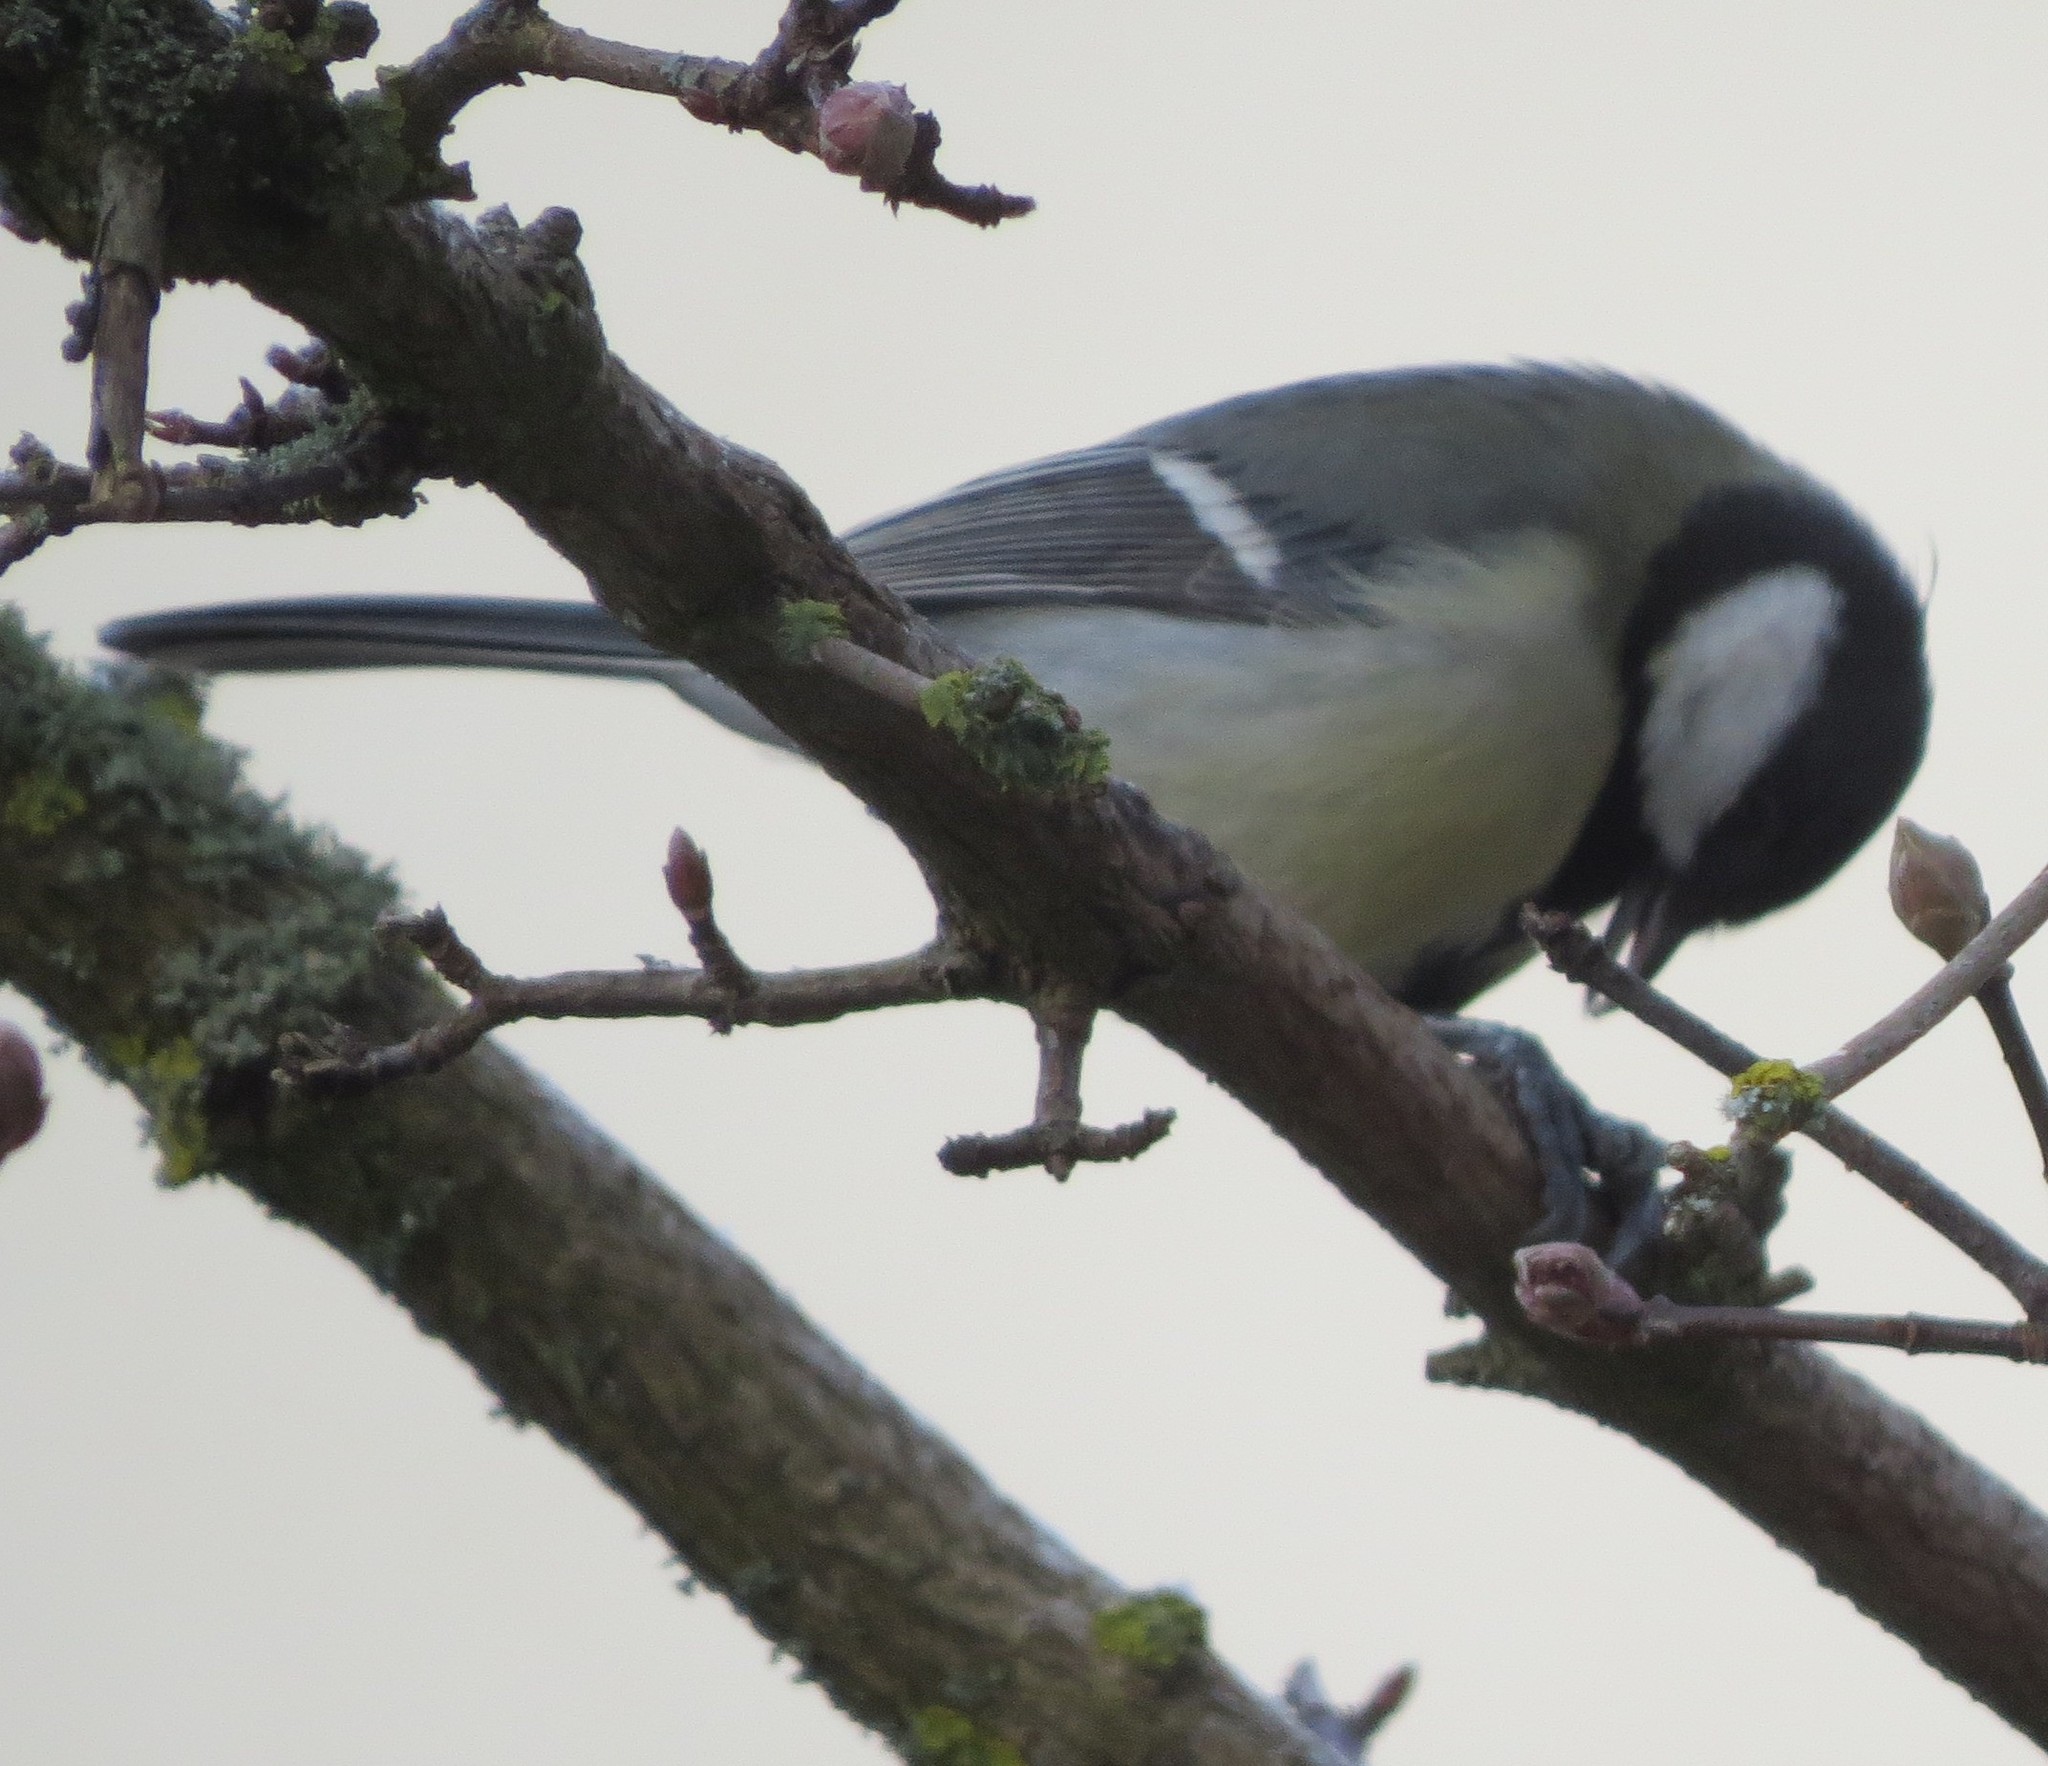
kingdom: Animalia
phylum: Chordata
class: Aves
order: Passeriformes
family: Paridae
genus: Parus
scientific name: Parus major
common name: Great tit
